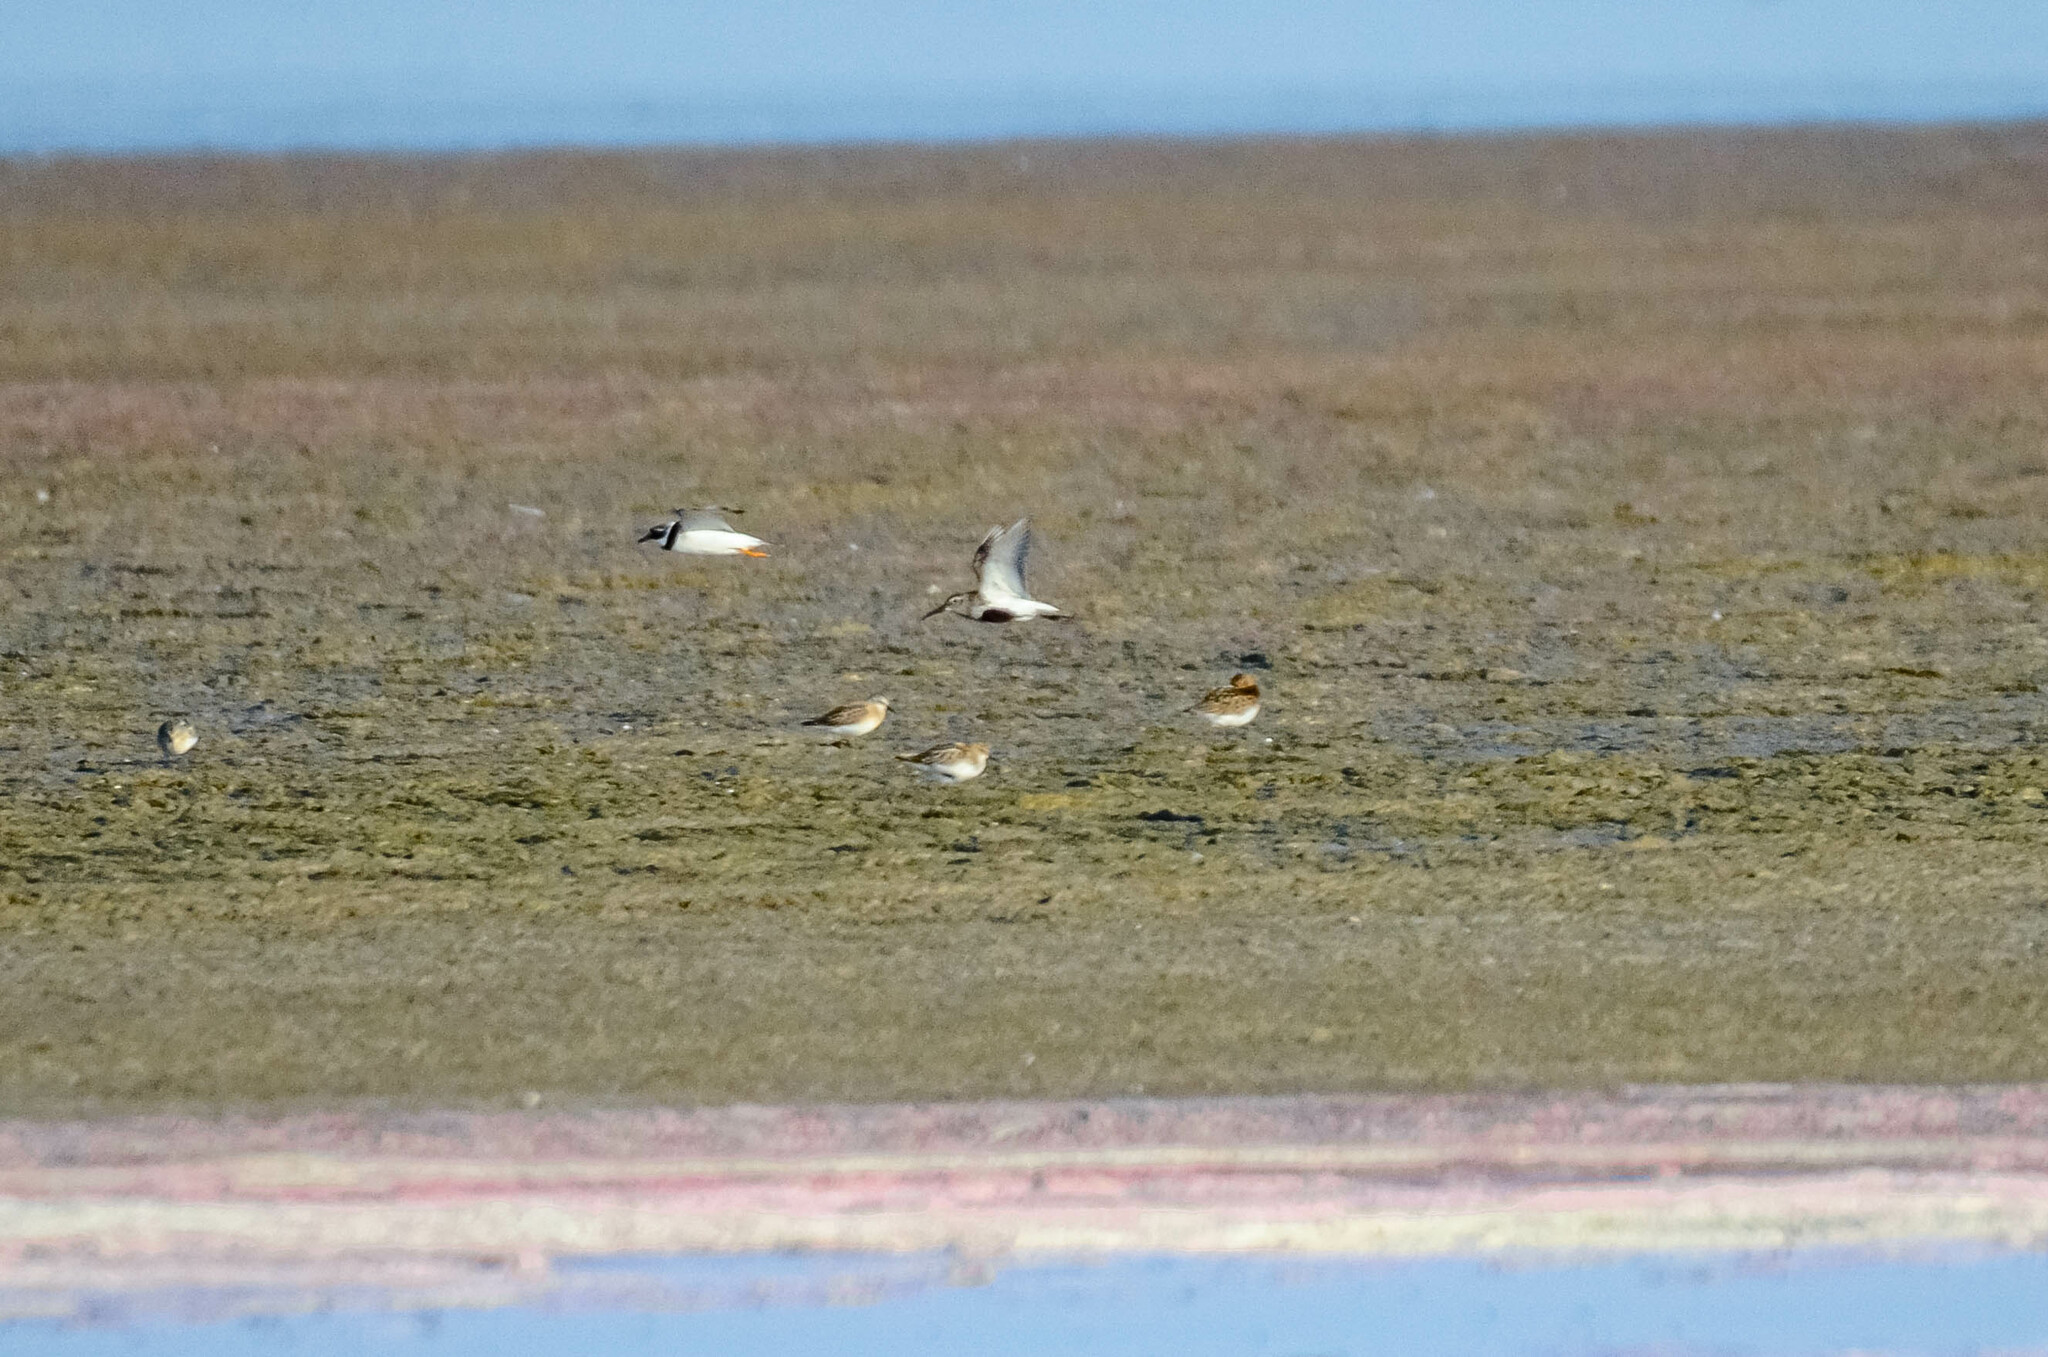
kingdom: Animalia
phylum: Chordata
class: Aves
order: Charadriiformes
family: Scolopacidae
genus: Calidris
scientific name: Calidris alpina
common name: Dunlin
